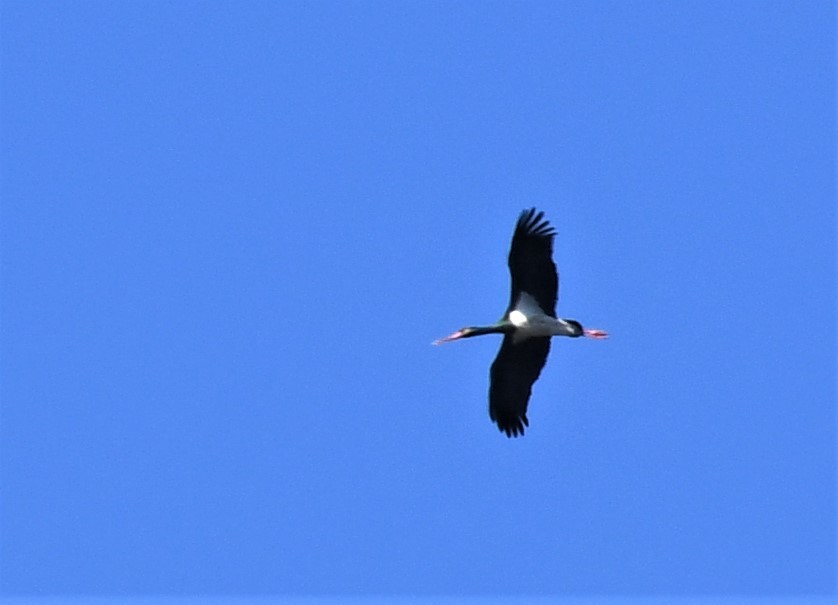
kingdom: Animalia
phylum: Chordata
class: Aves
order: Ciconiiformes
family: Ciconiidae
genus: Ciconia
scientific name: Ciconia nigra
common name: Black stork
